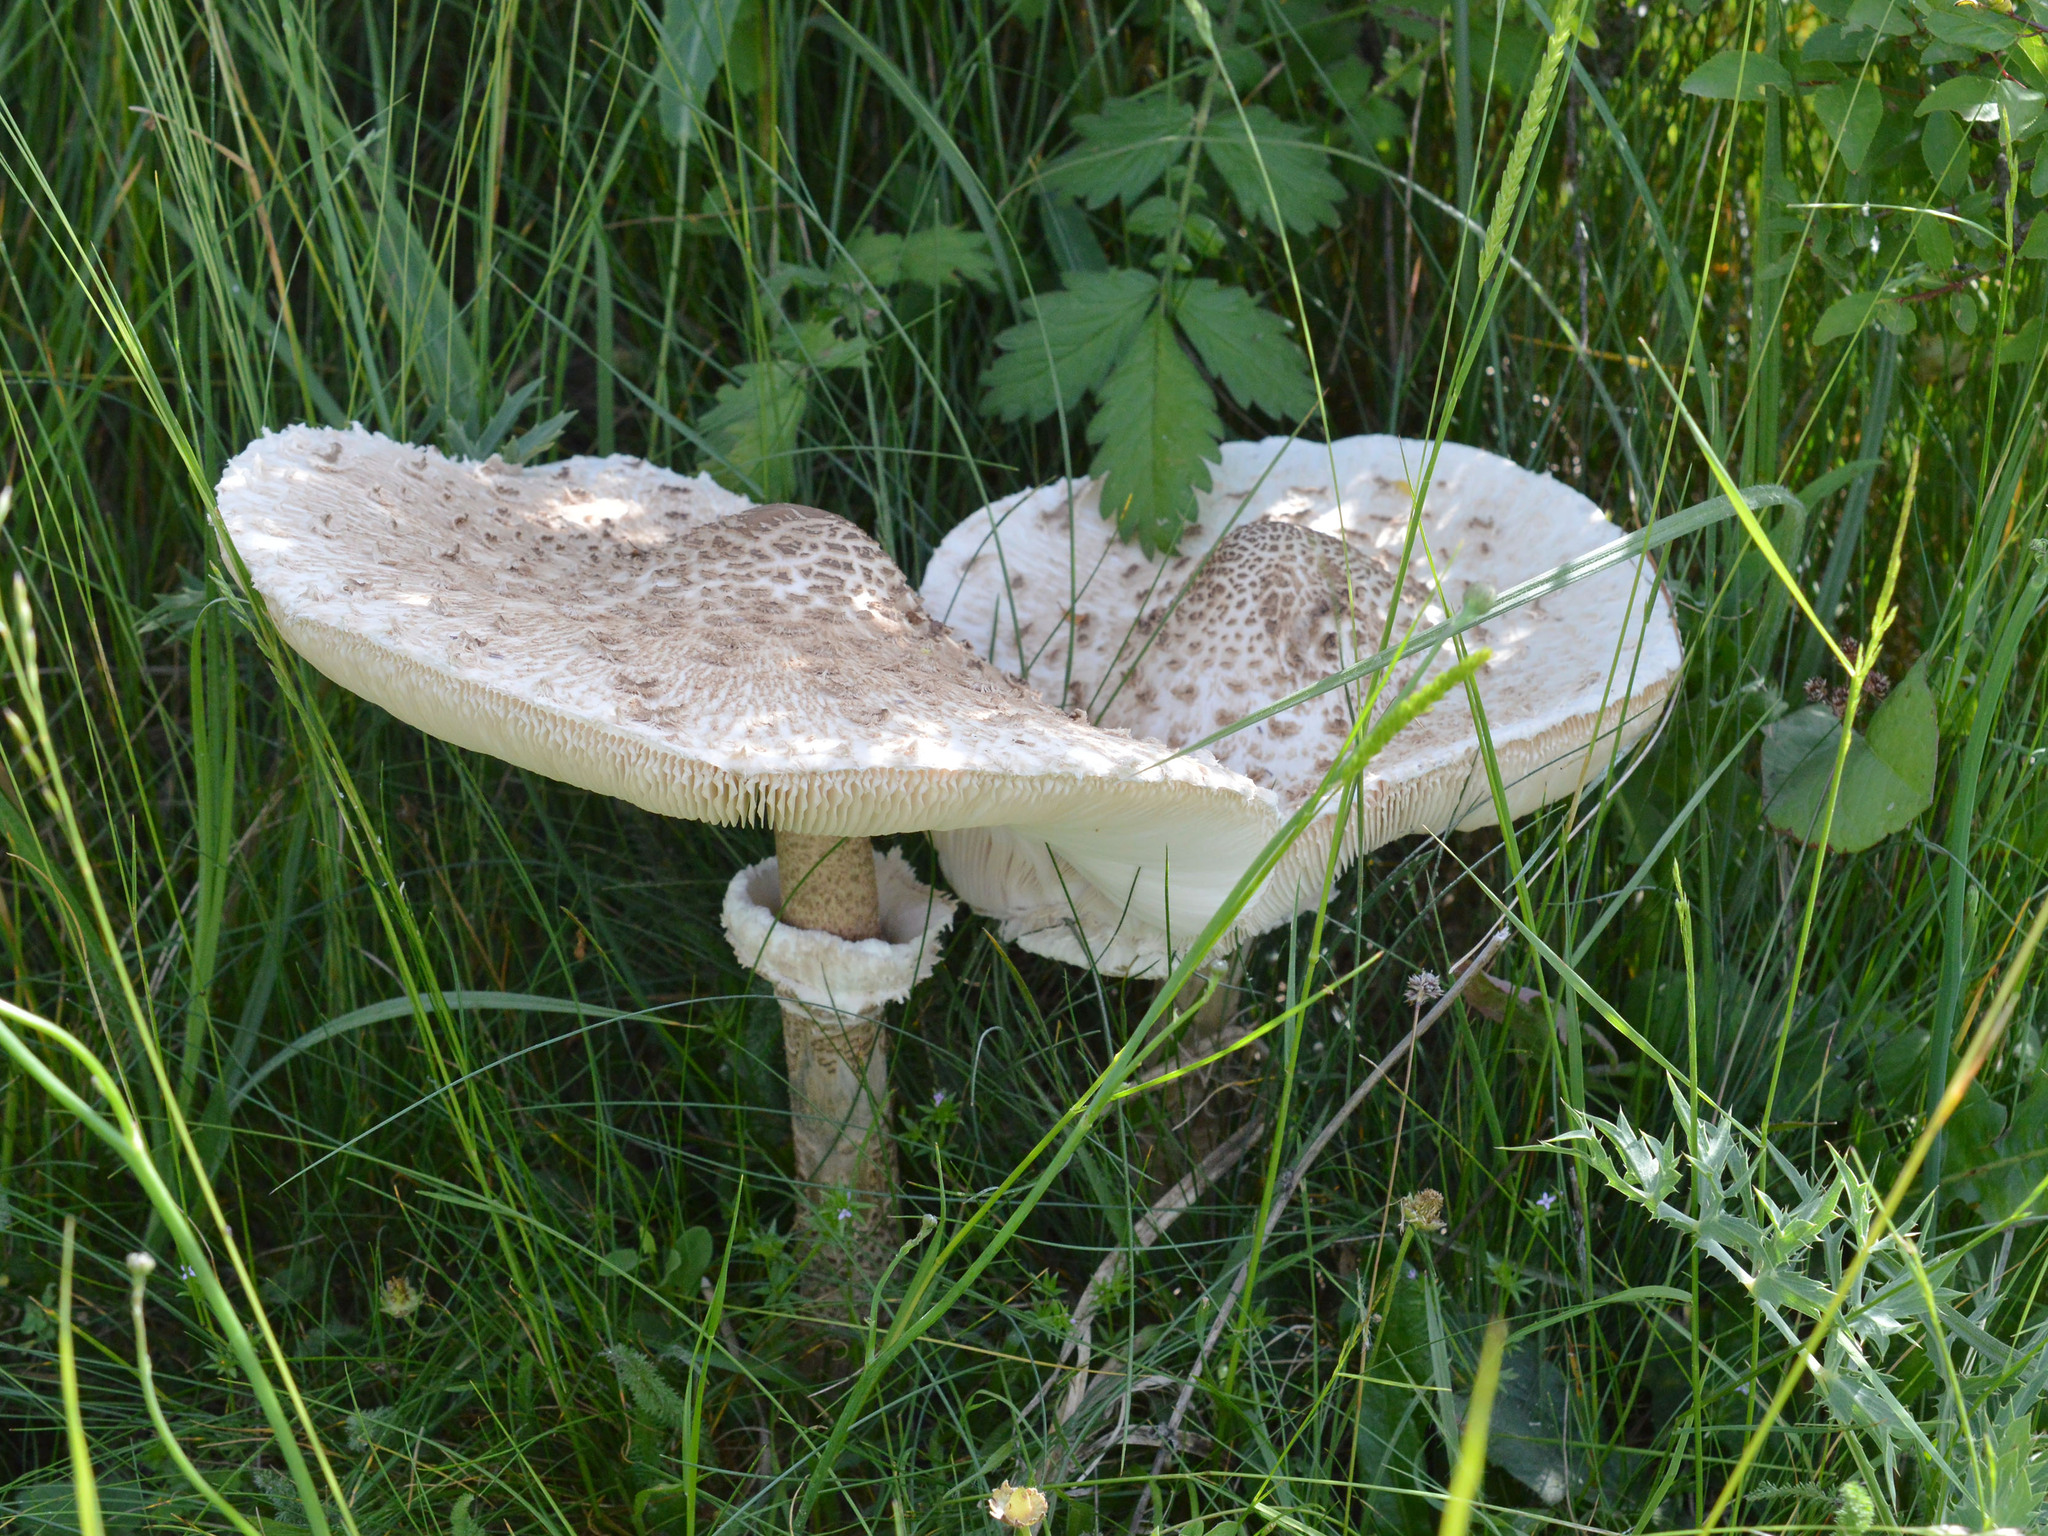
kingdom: Fungi
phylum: Basidiomycota
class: Agaricomycetes
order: Agaricales
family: Agaricaceae
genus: Macrolepiota
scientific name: Macrolepiota procera
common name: Parasol
